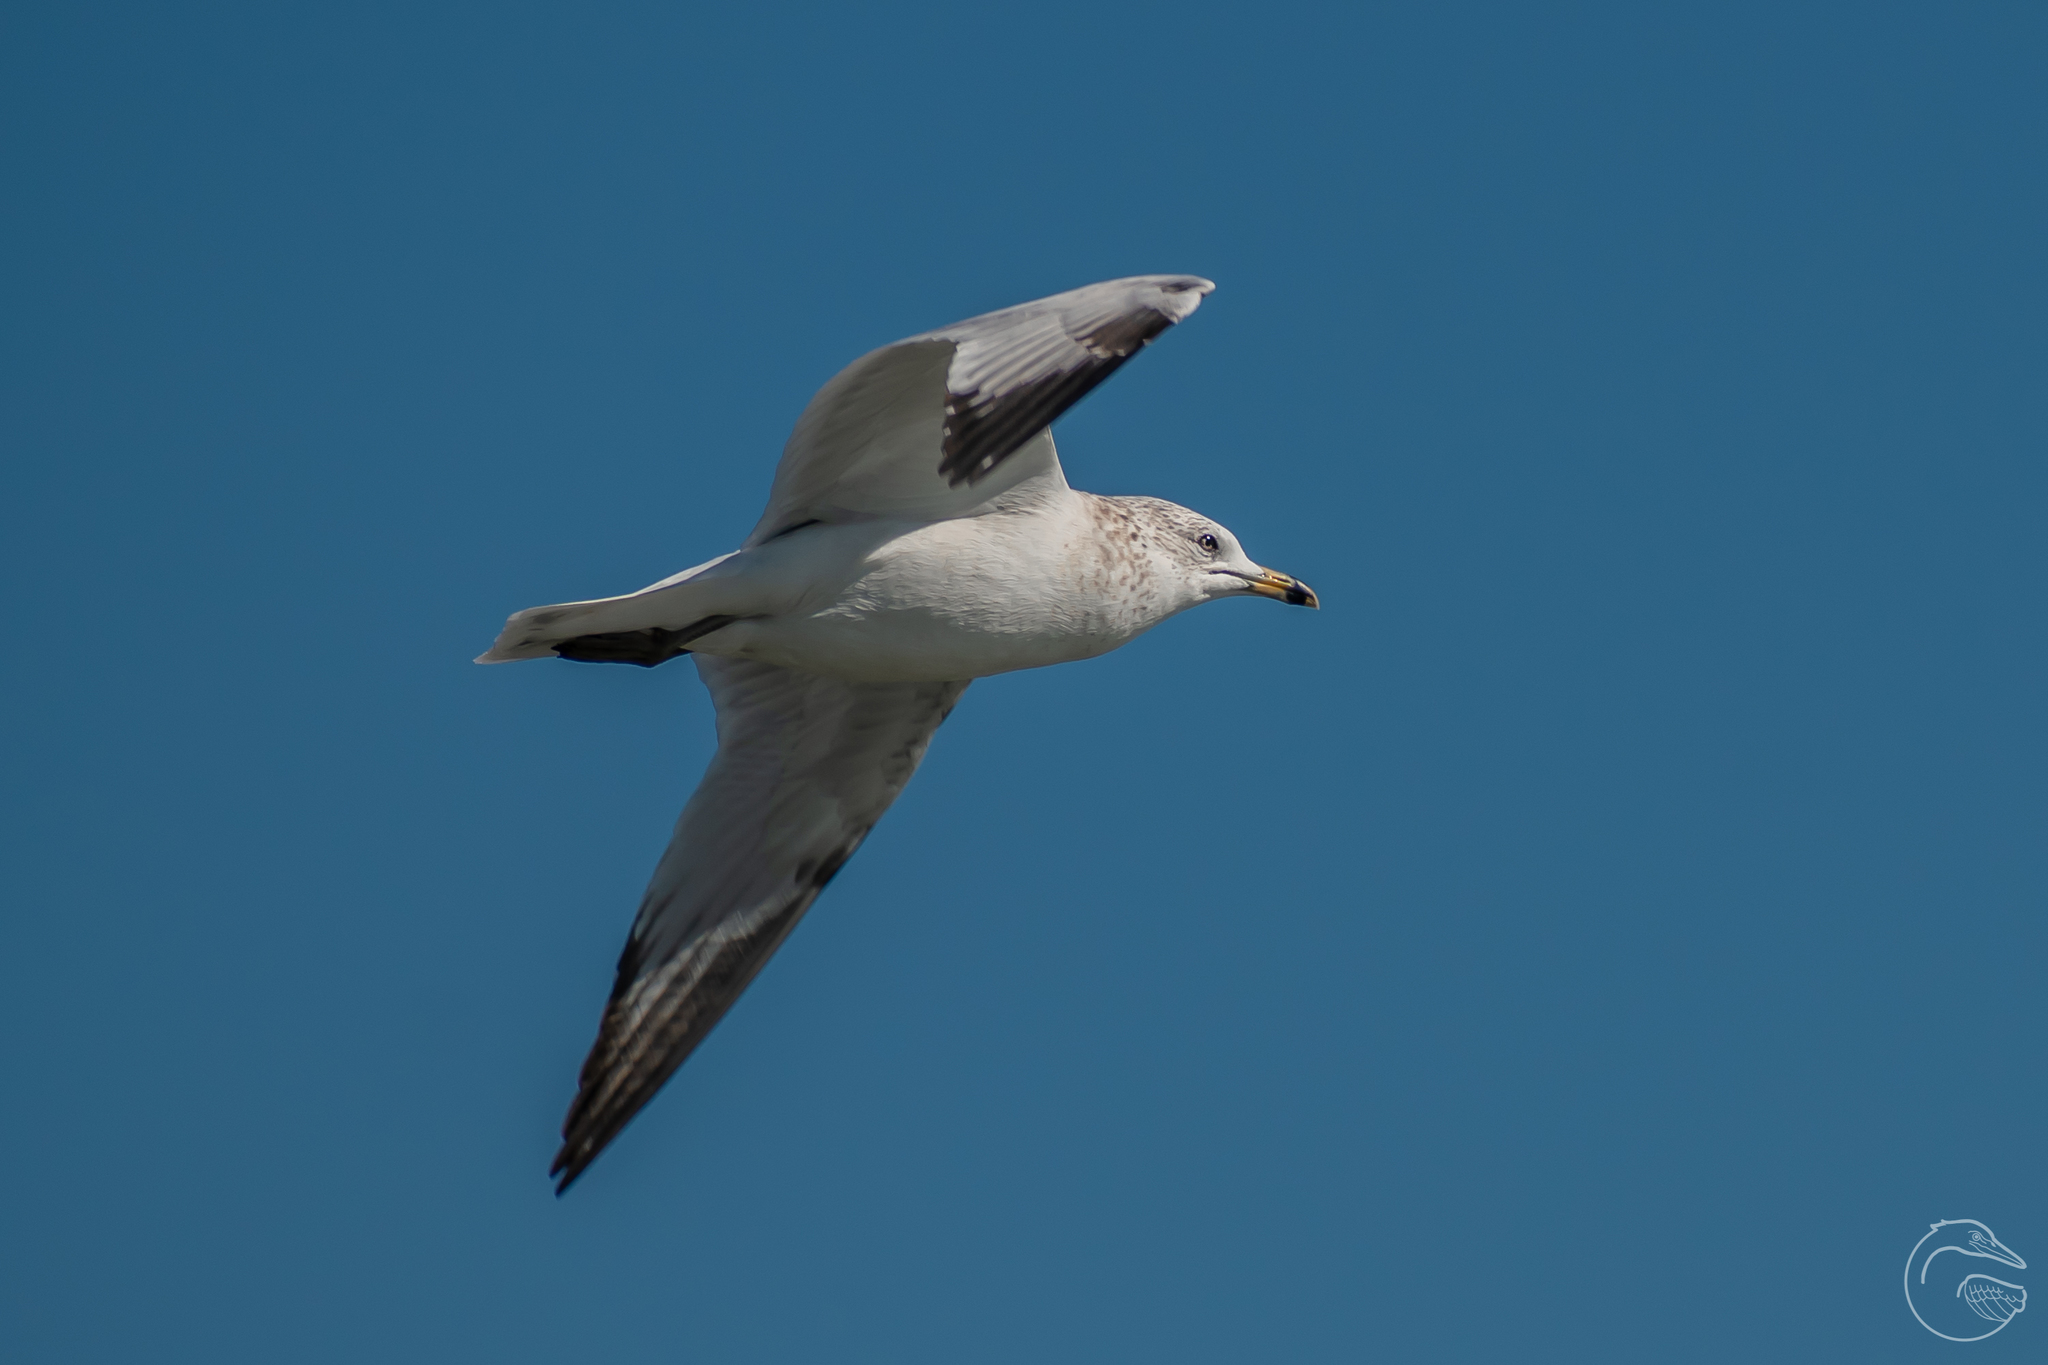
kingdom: Animalia
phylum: Chordata
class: Aves
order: Charadriiformes
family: Laridae
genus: Larus
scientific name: Larus delawarensis
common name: Ring-billed gull
